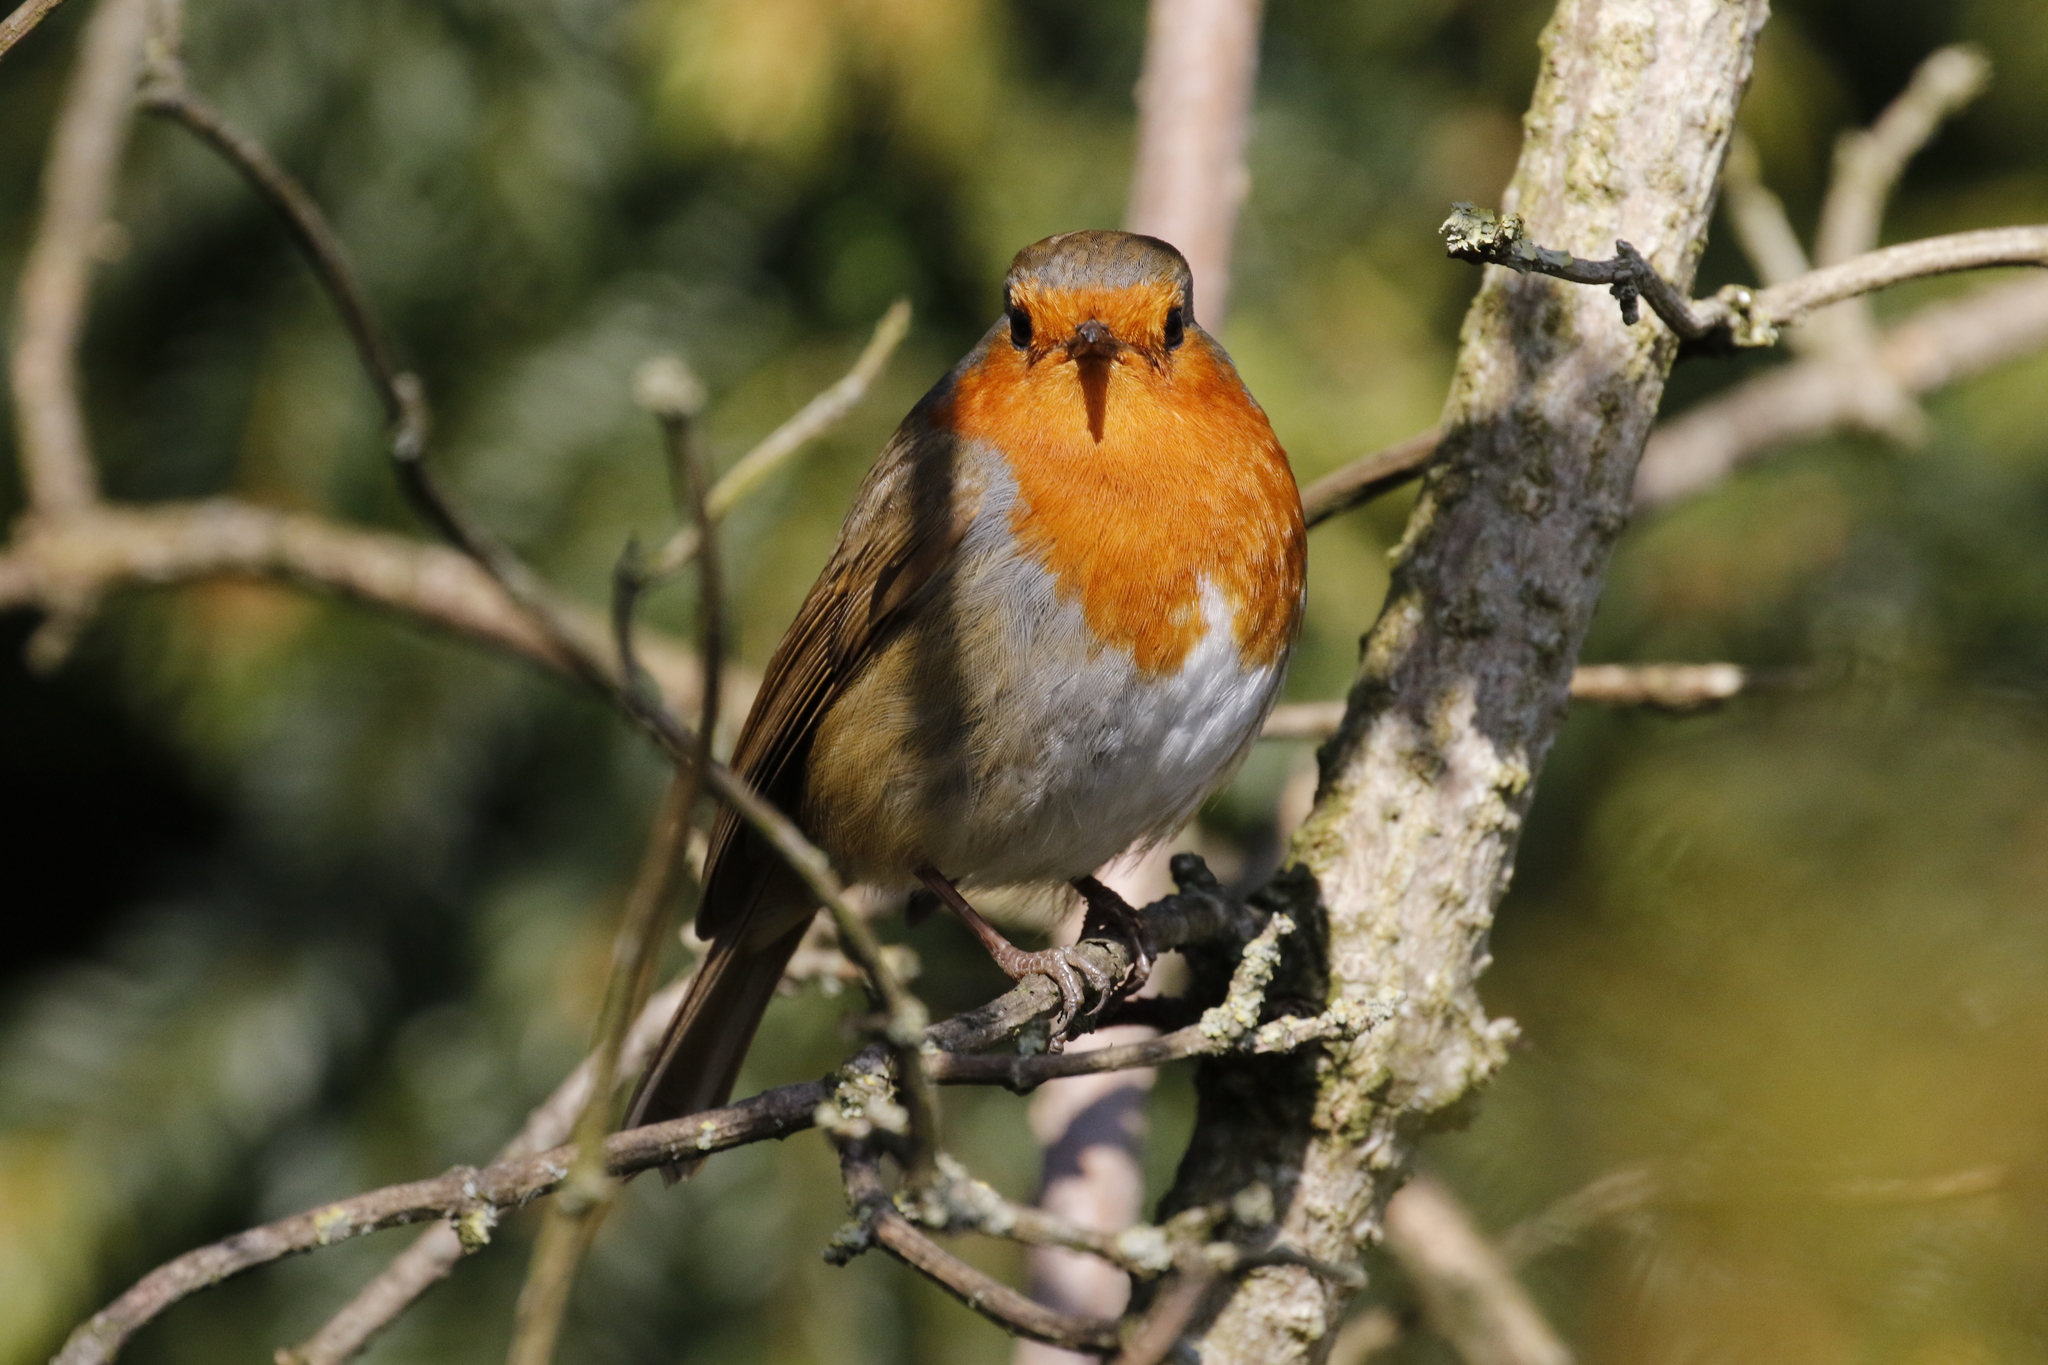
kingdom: Animalia
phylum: Chordata
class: Aves
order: Passeriformes
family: Muscicapidae
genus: Erithacus
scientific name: Erithacus rubecula
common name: European robin
